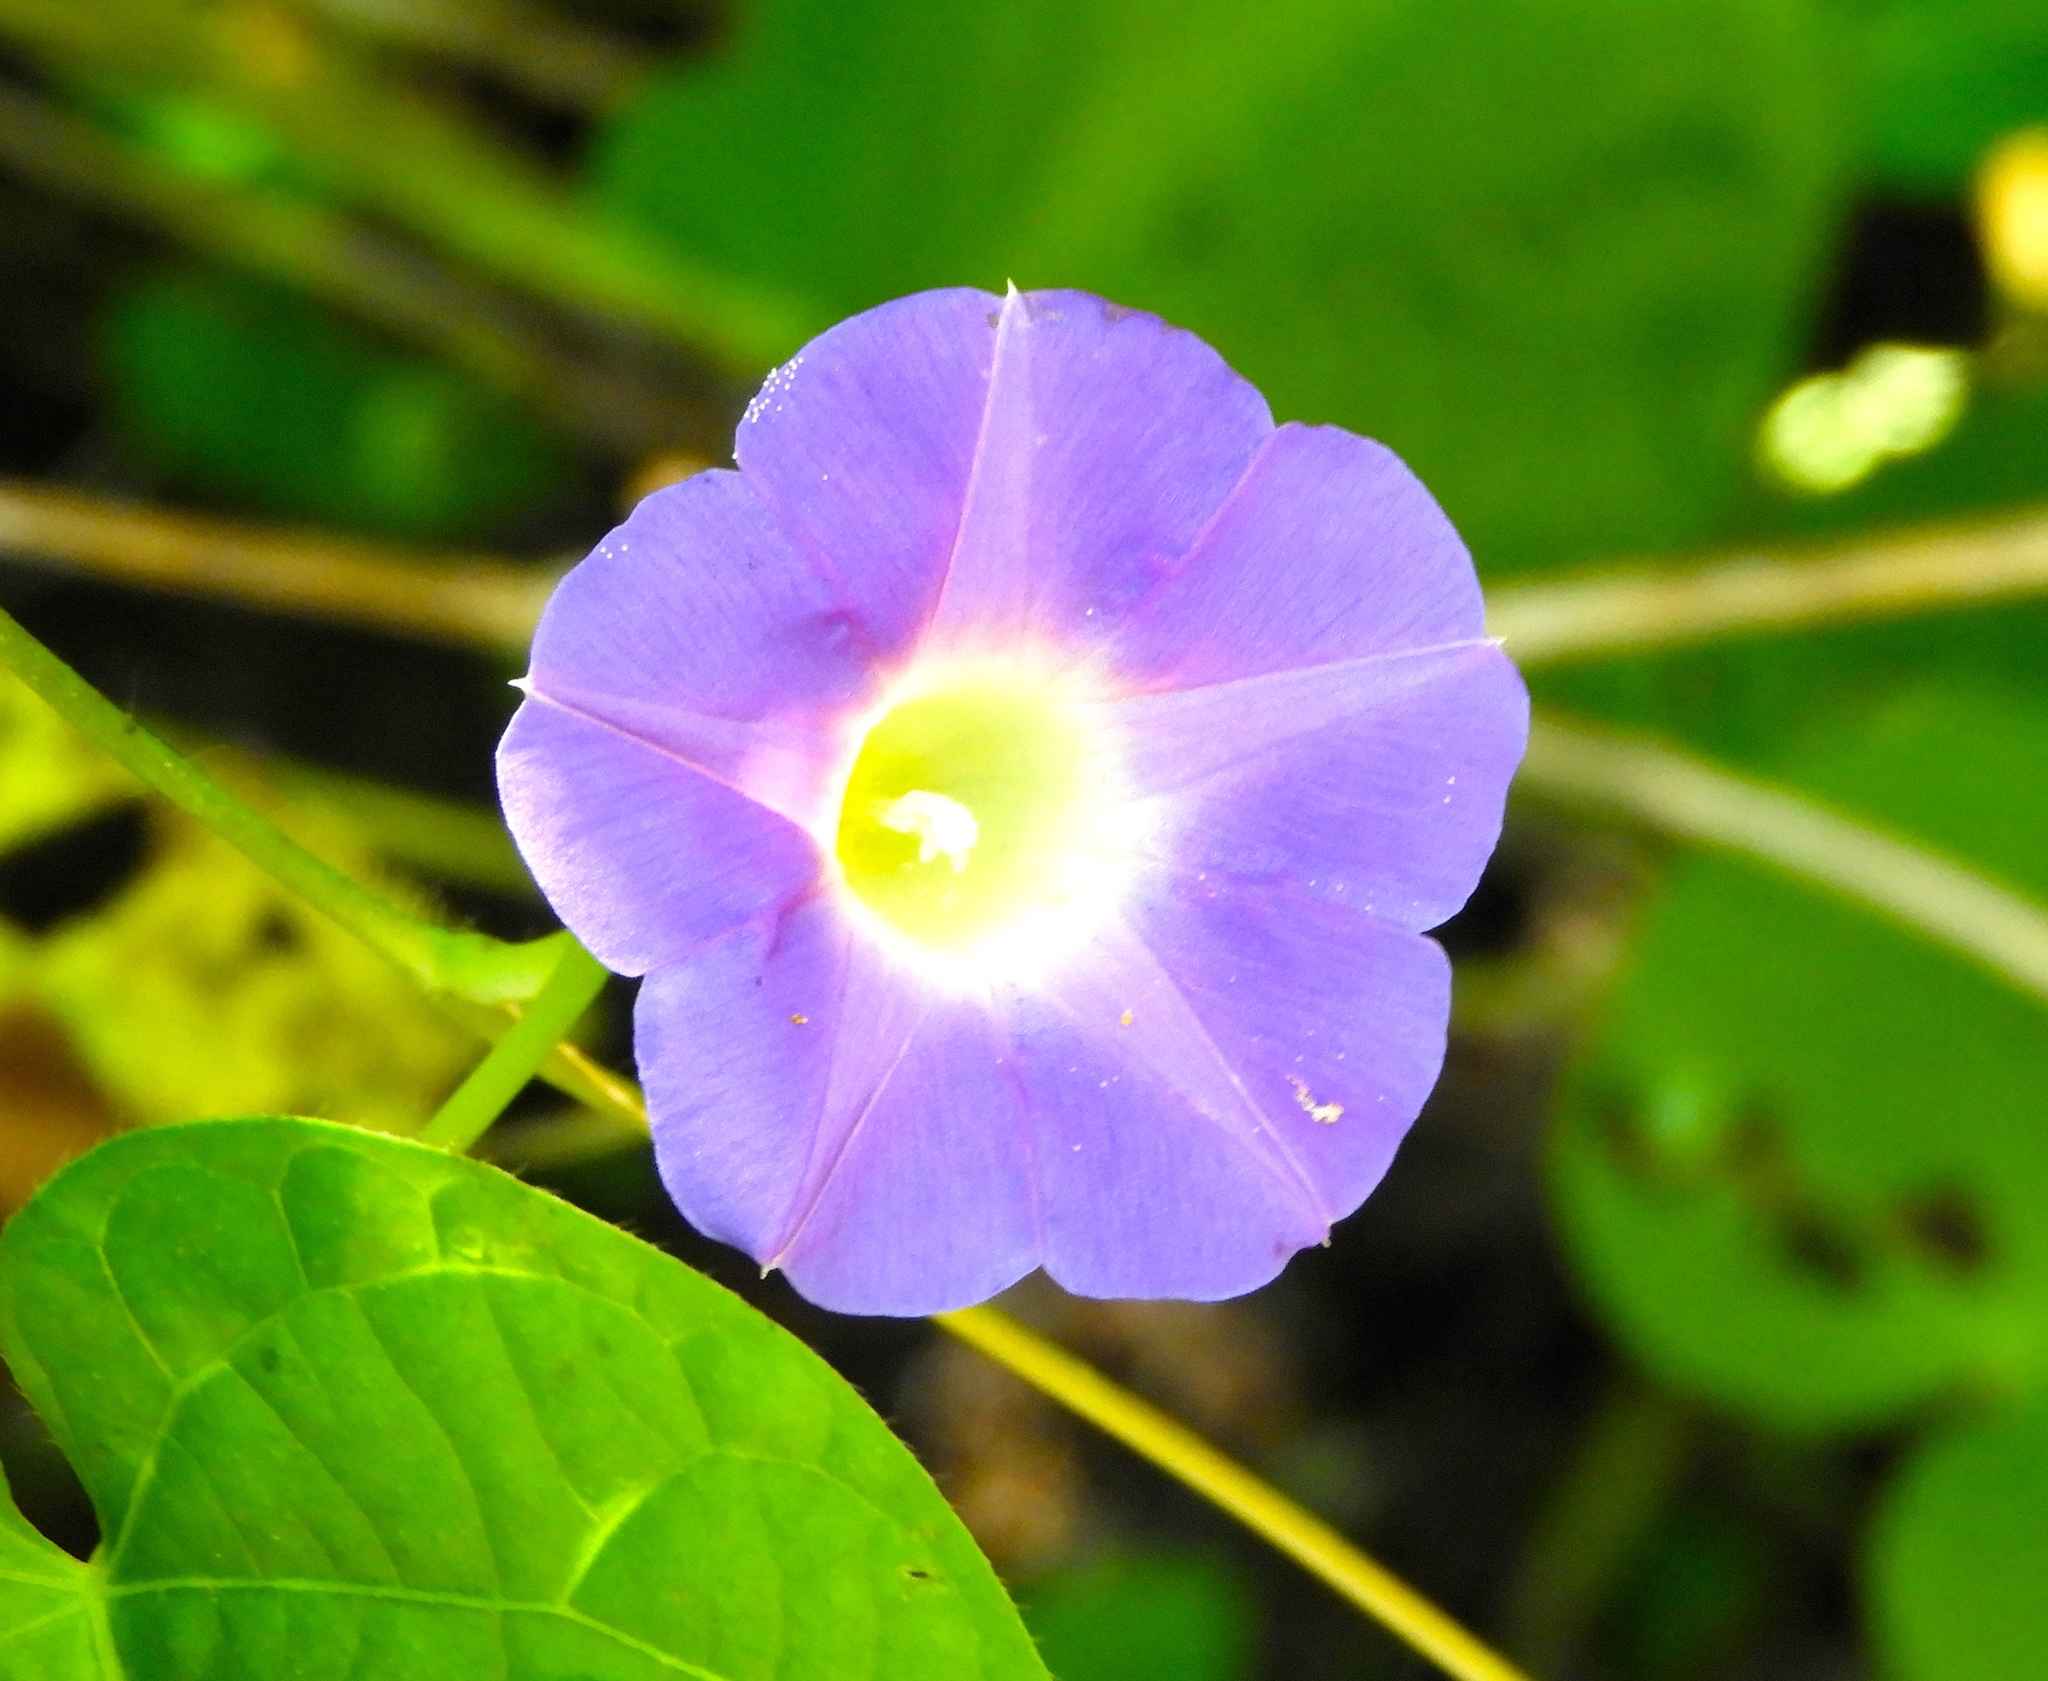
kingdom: Plantae
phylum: Tracheophyta
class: Magnoliopsida
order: Solanales
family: Convolvulaceae
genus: Ipomoea
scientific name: Ipomoea purpurea
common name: Common morning-glory
